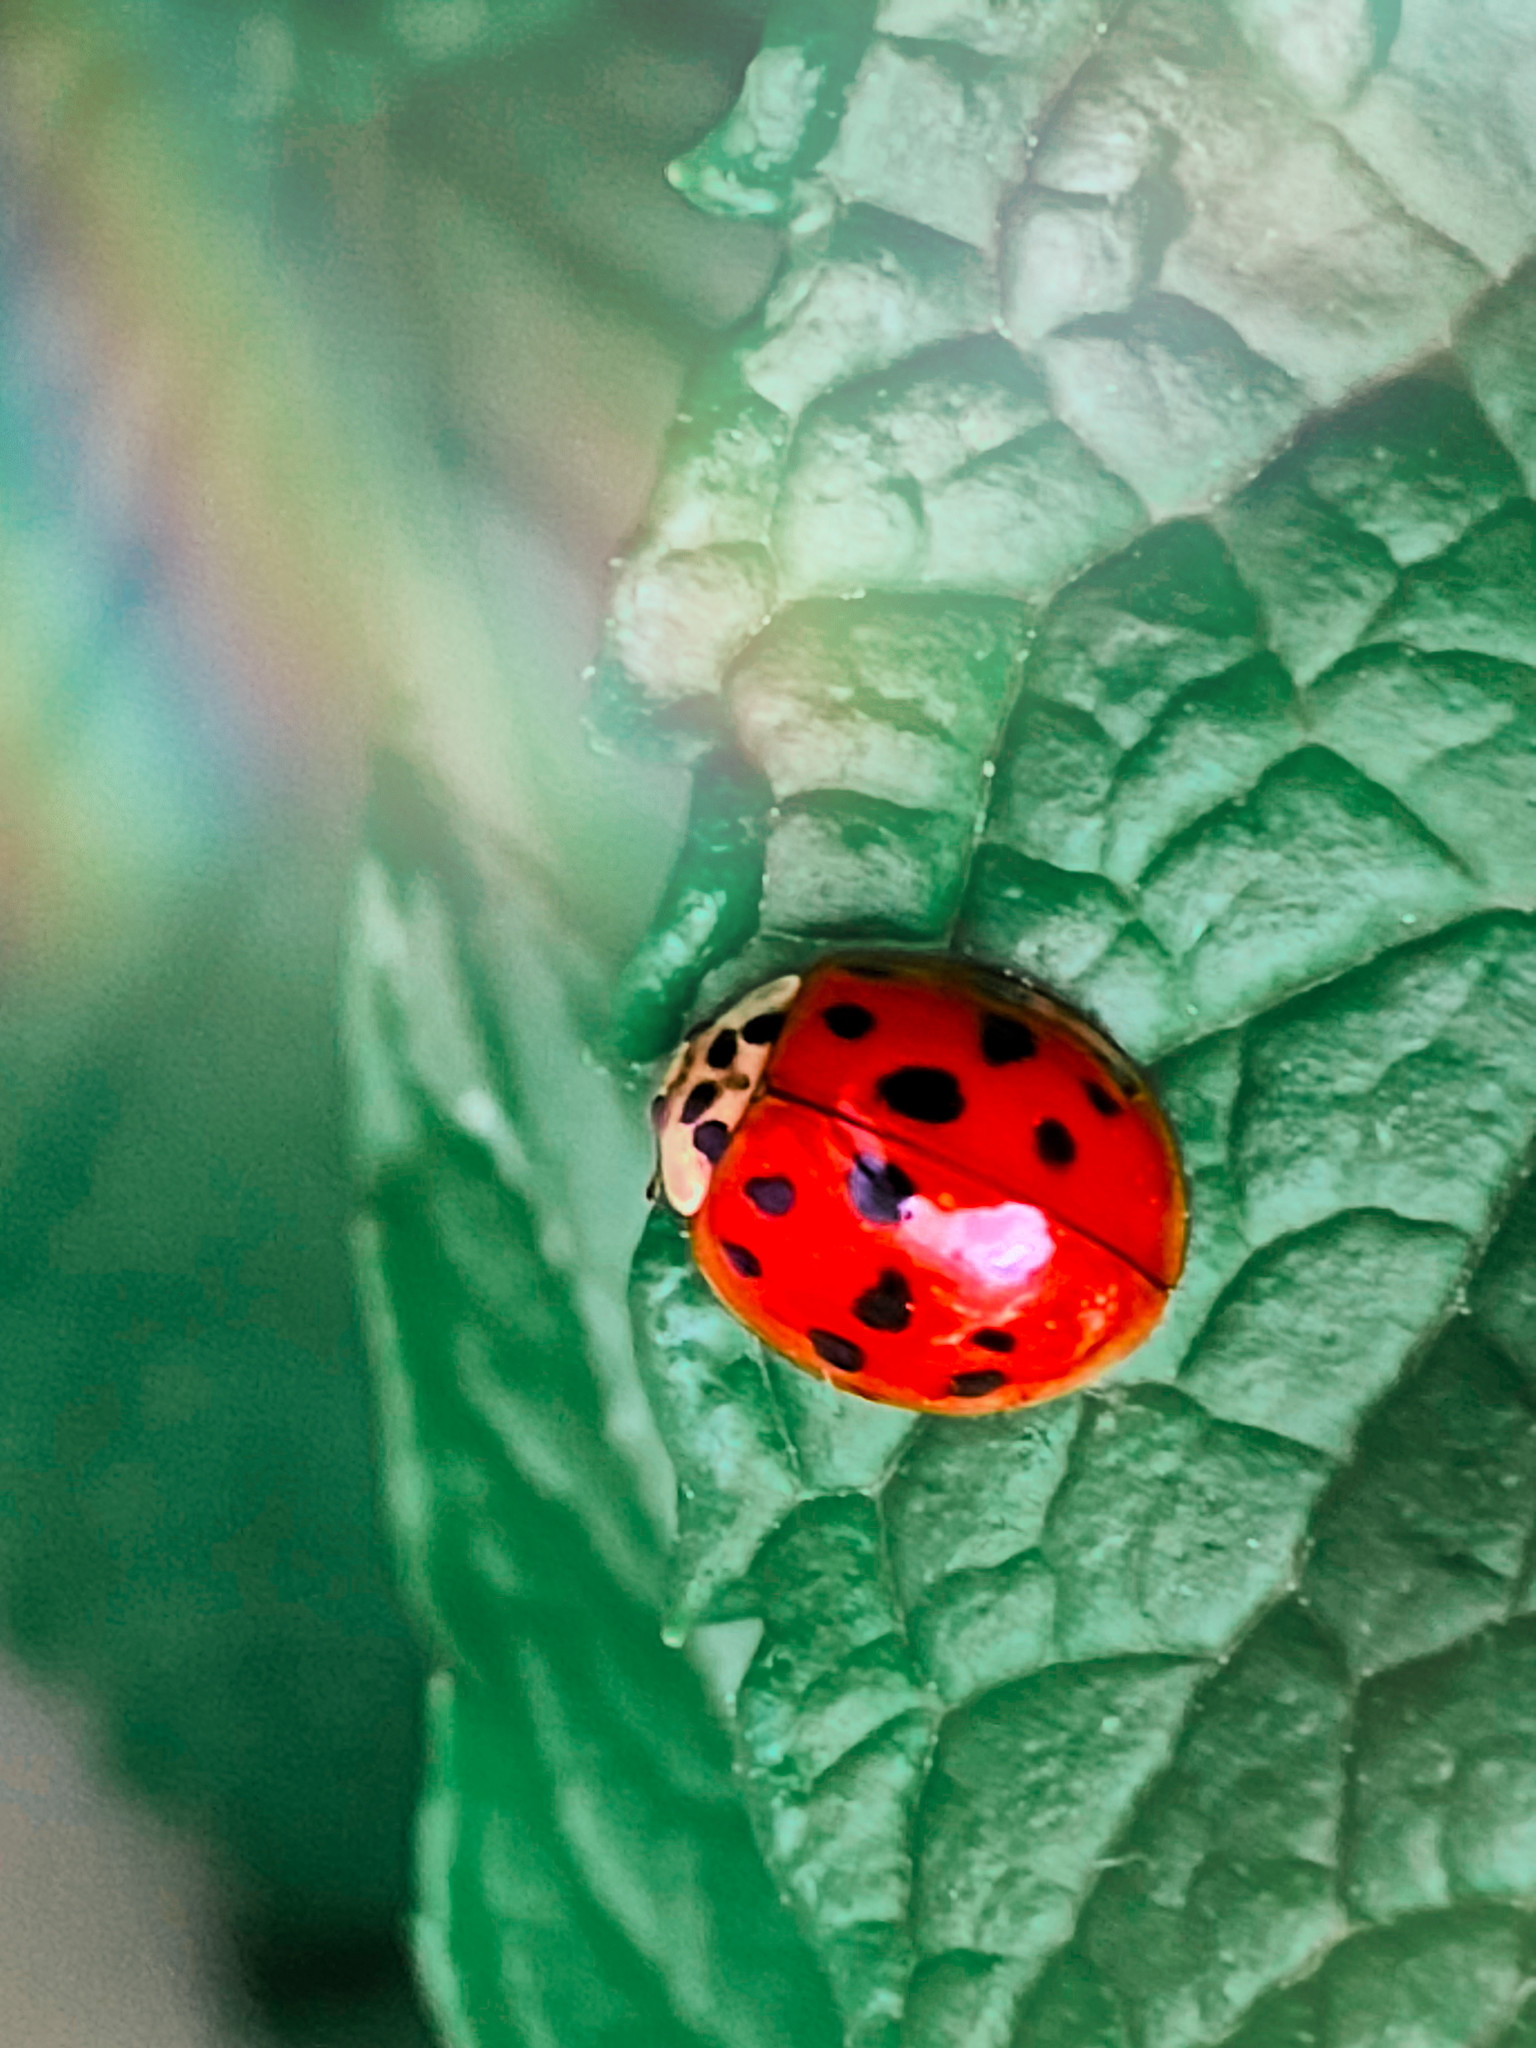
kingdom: Animalia
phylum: Arthropoda
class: Insecta
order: Coleoptera
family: Coccinellidae
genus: Harmonia
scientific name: Harmonia axyridis
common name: Harlequin ladybird
